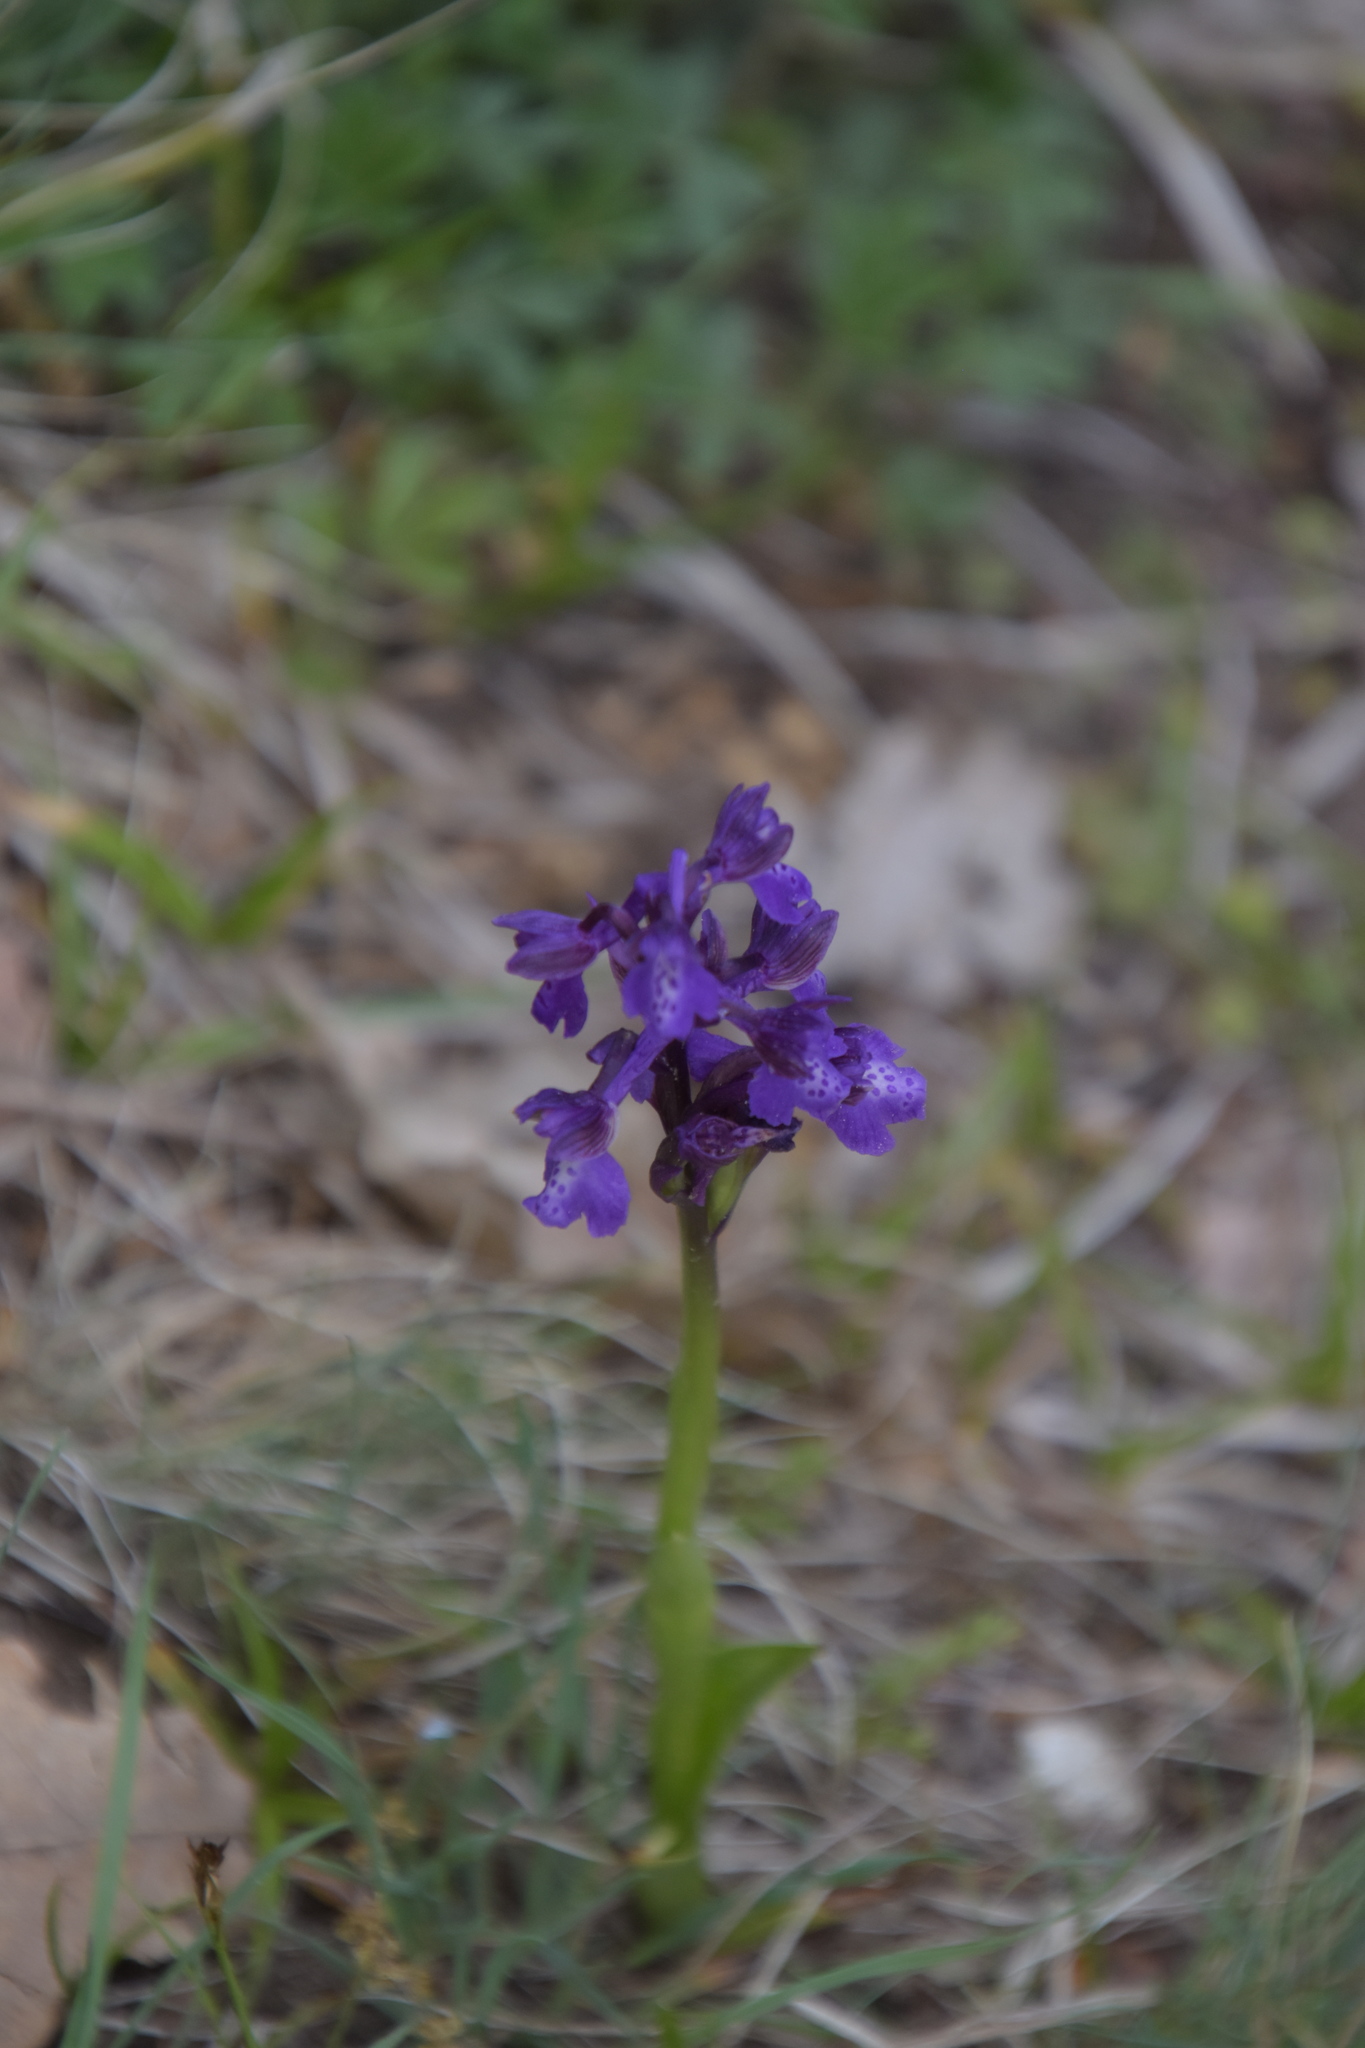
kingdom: Plantae
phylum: Tracheophyta
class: Liliopsida
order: Asparagales
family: Orchidaceae
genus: Anacamptis
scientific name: Anacamptis morio
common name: Green-winged orchid
